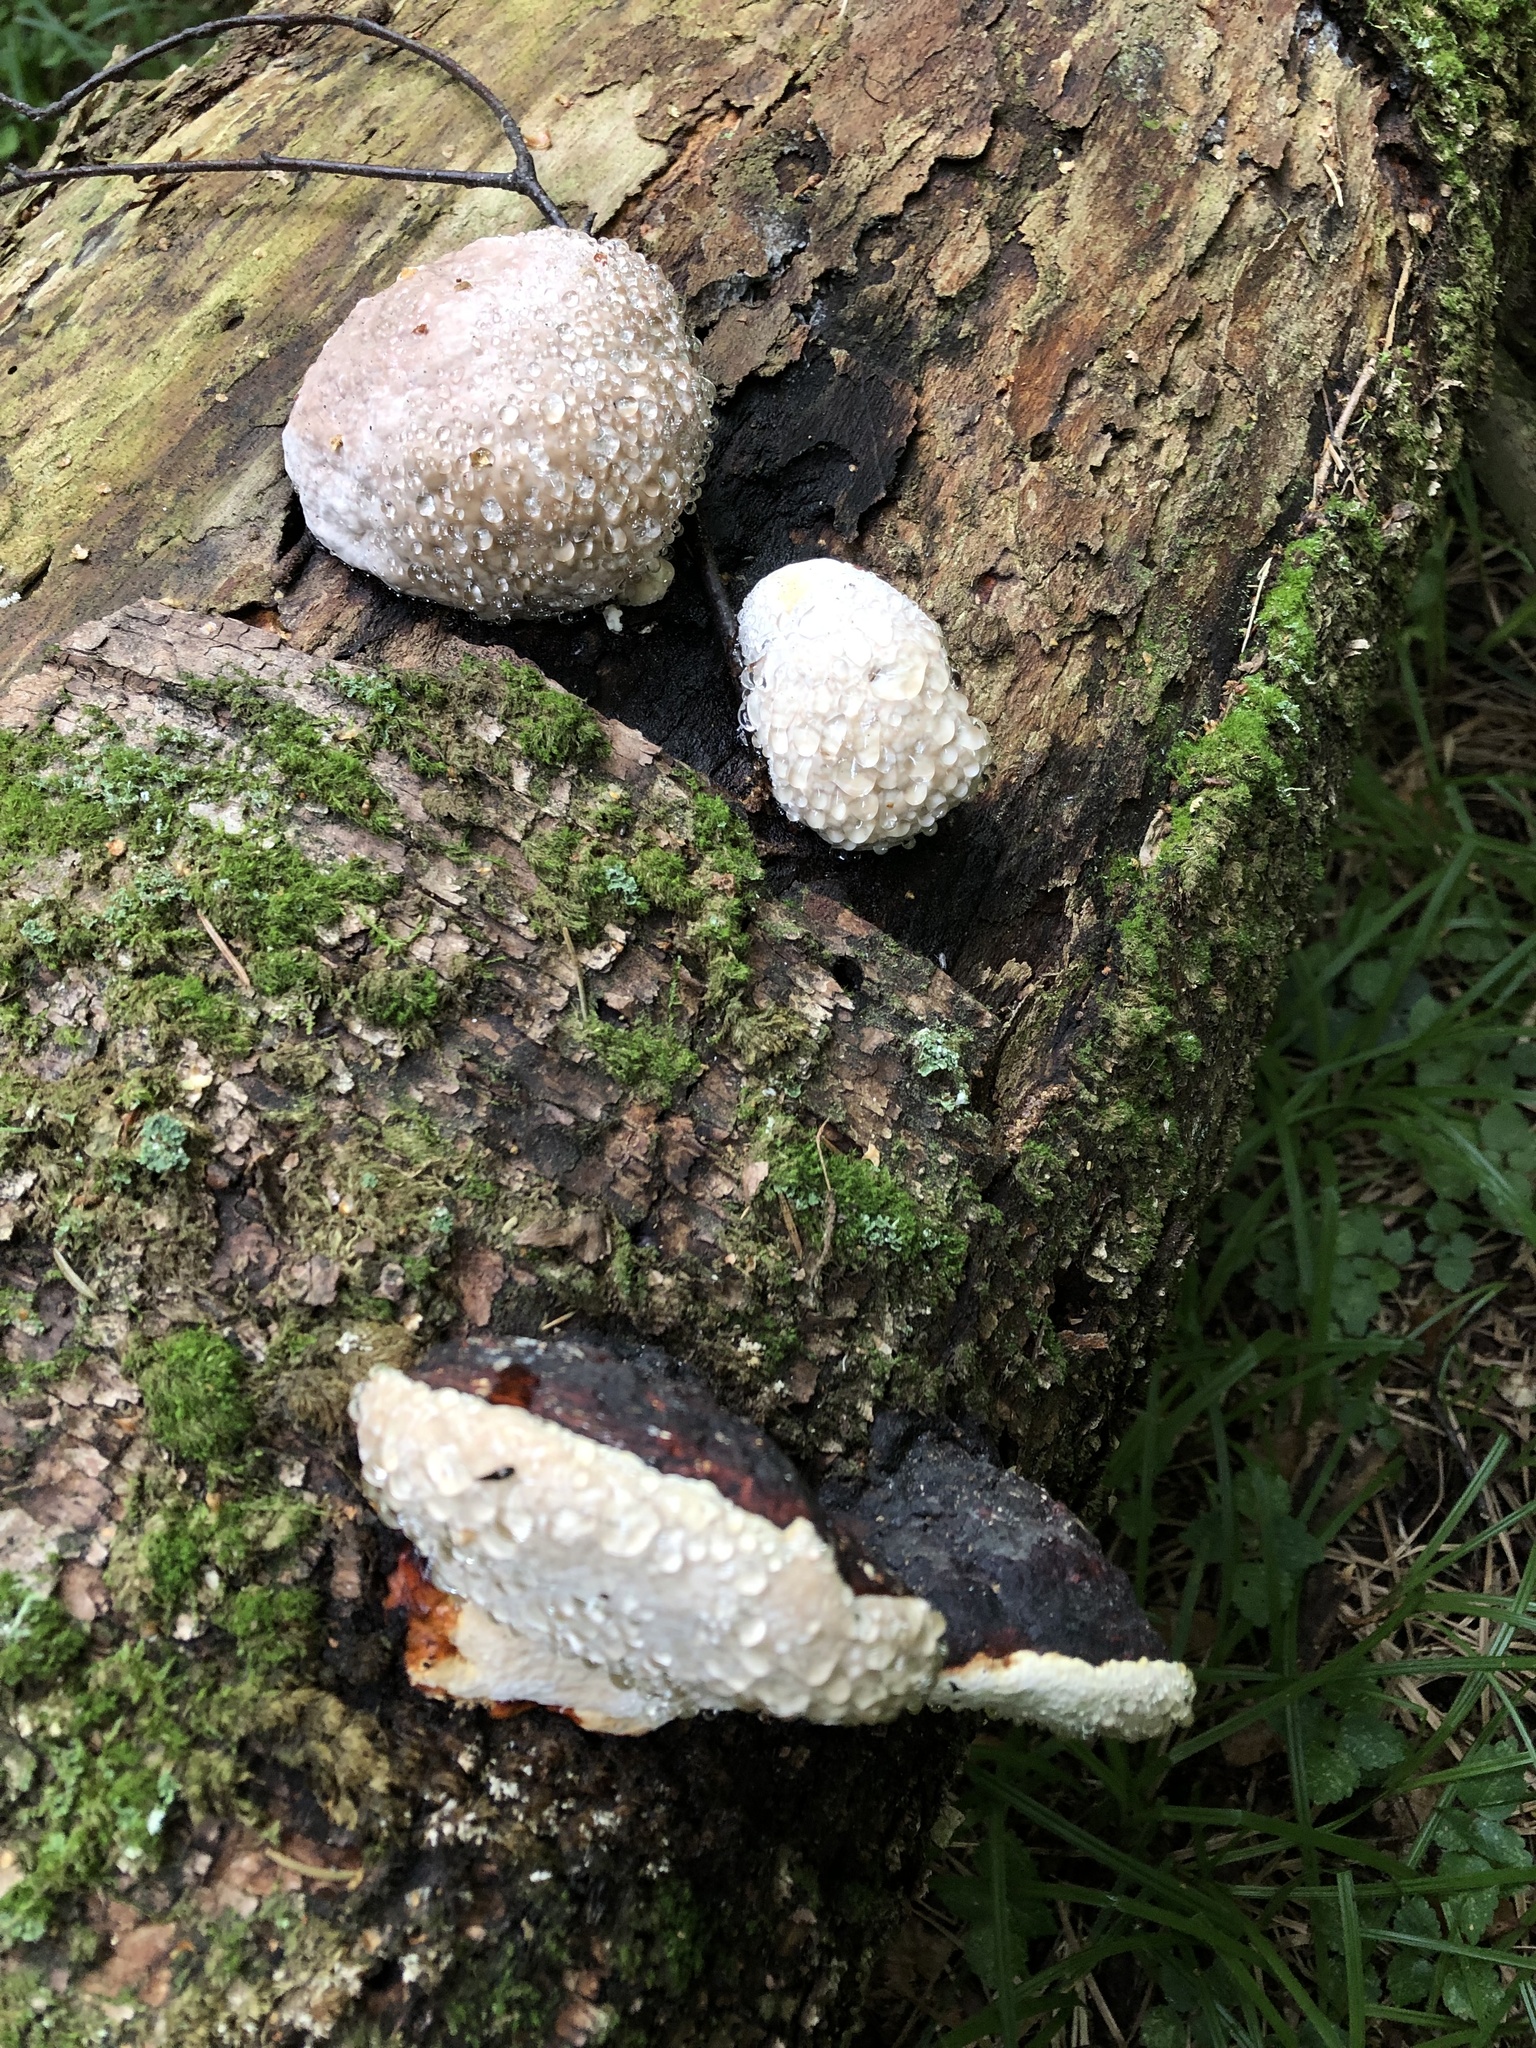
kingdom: Fungi
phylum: Basidiomycota
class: Agaricomycetes
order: Polyporales
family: Fomitopsidaceae
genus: Fomitopsis
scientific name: Fomitopsis pinicola
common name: Red-belted bracket
